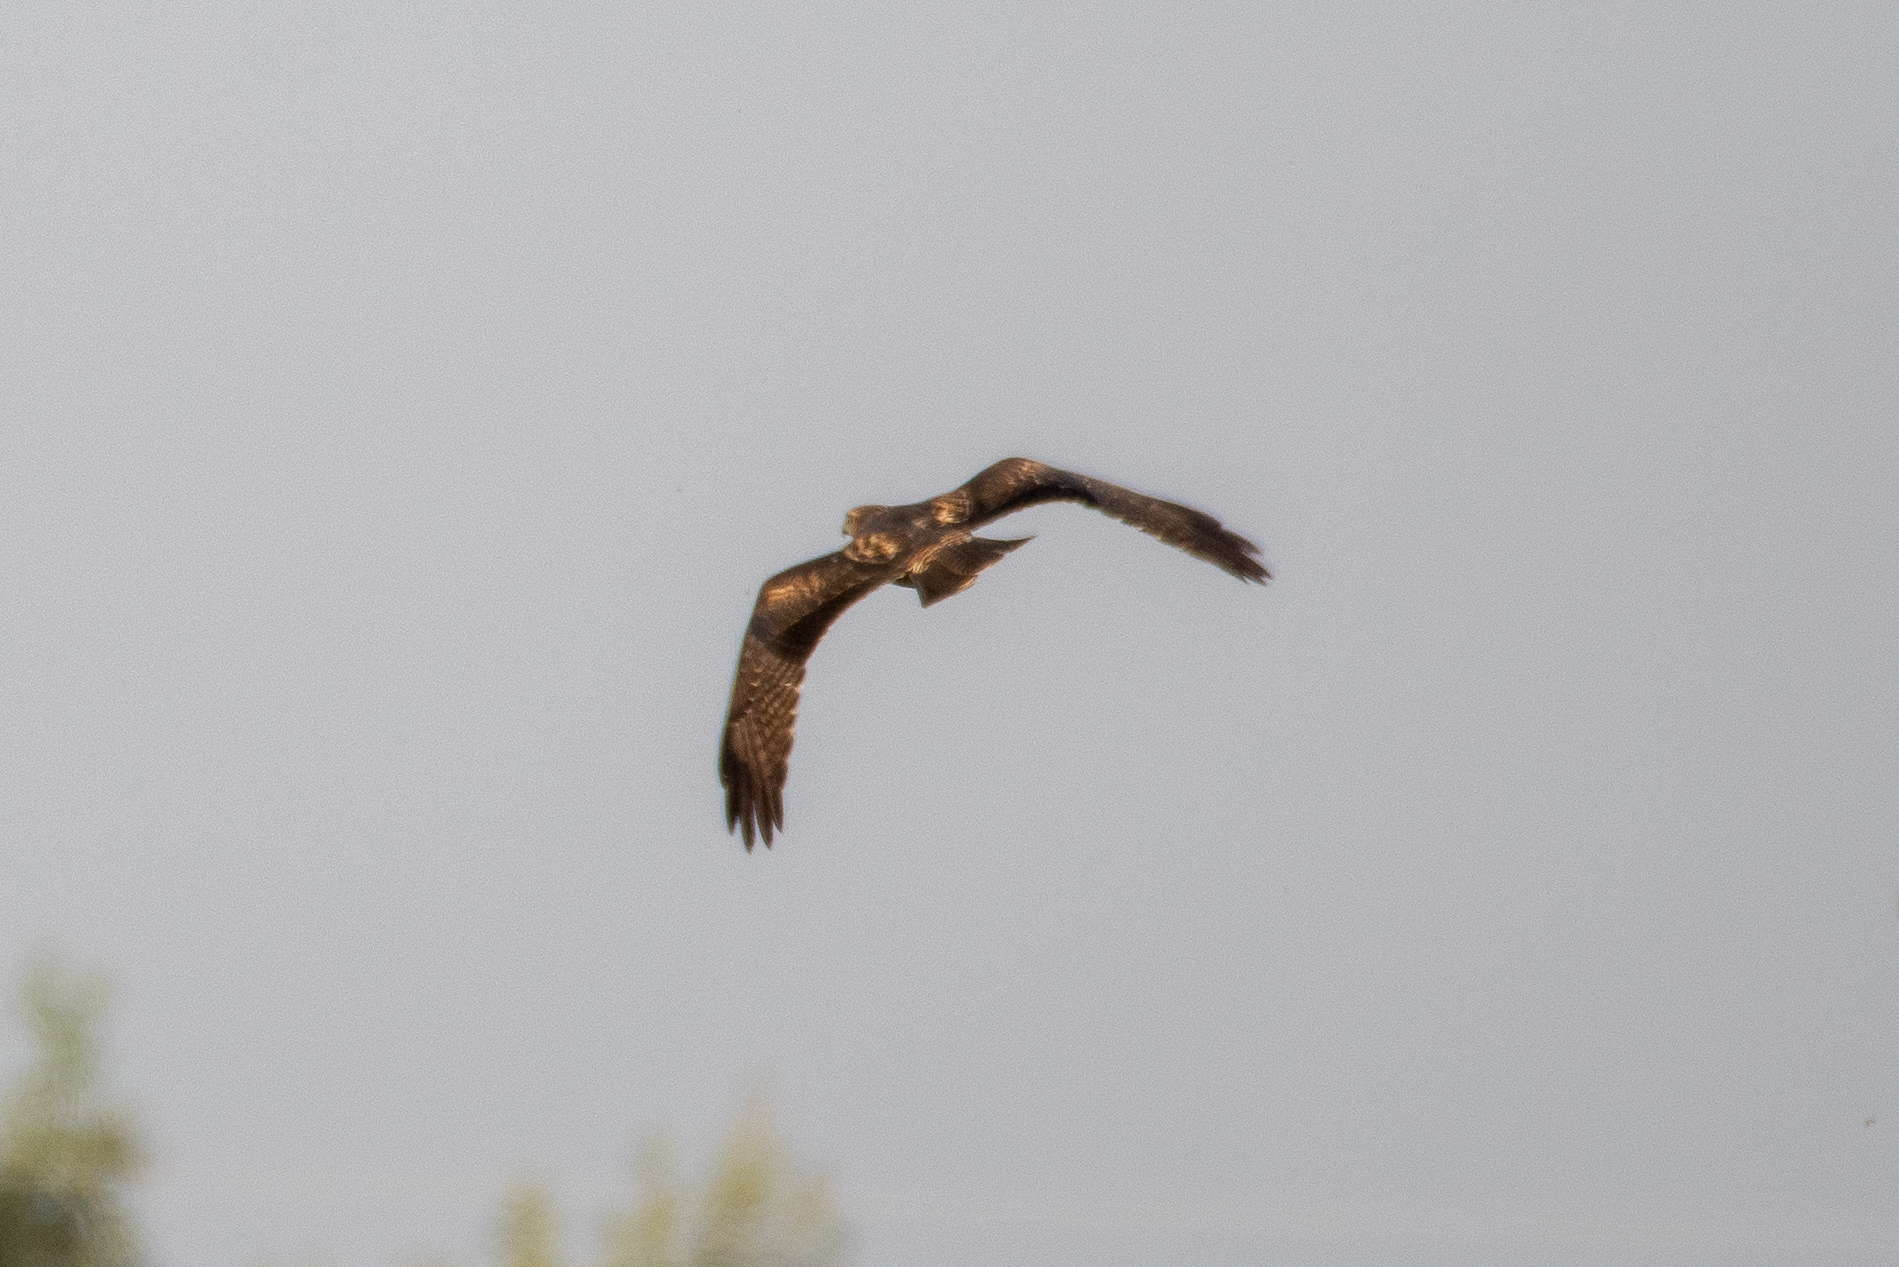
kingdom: Animalia
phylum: Chordata
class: Aves
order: Accipitriformes
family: Accipitridae
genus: Buteo
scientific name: Buteo jamaicensis
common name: Red-tailed hawk
